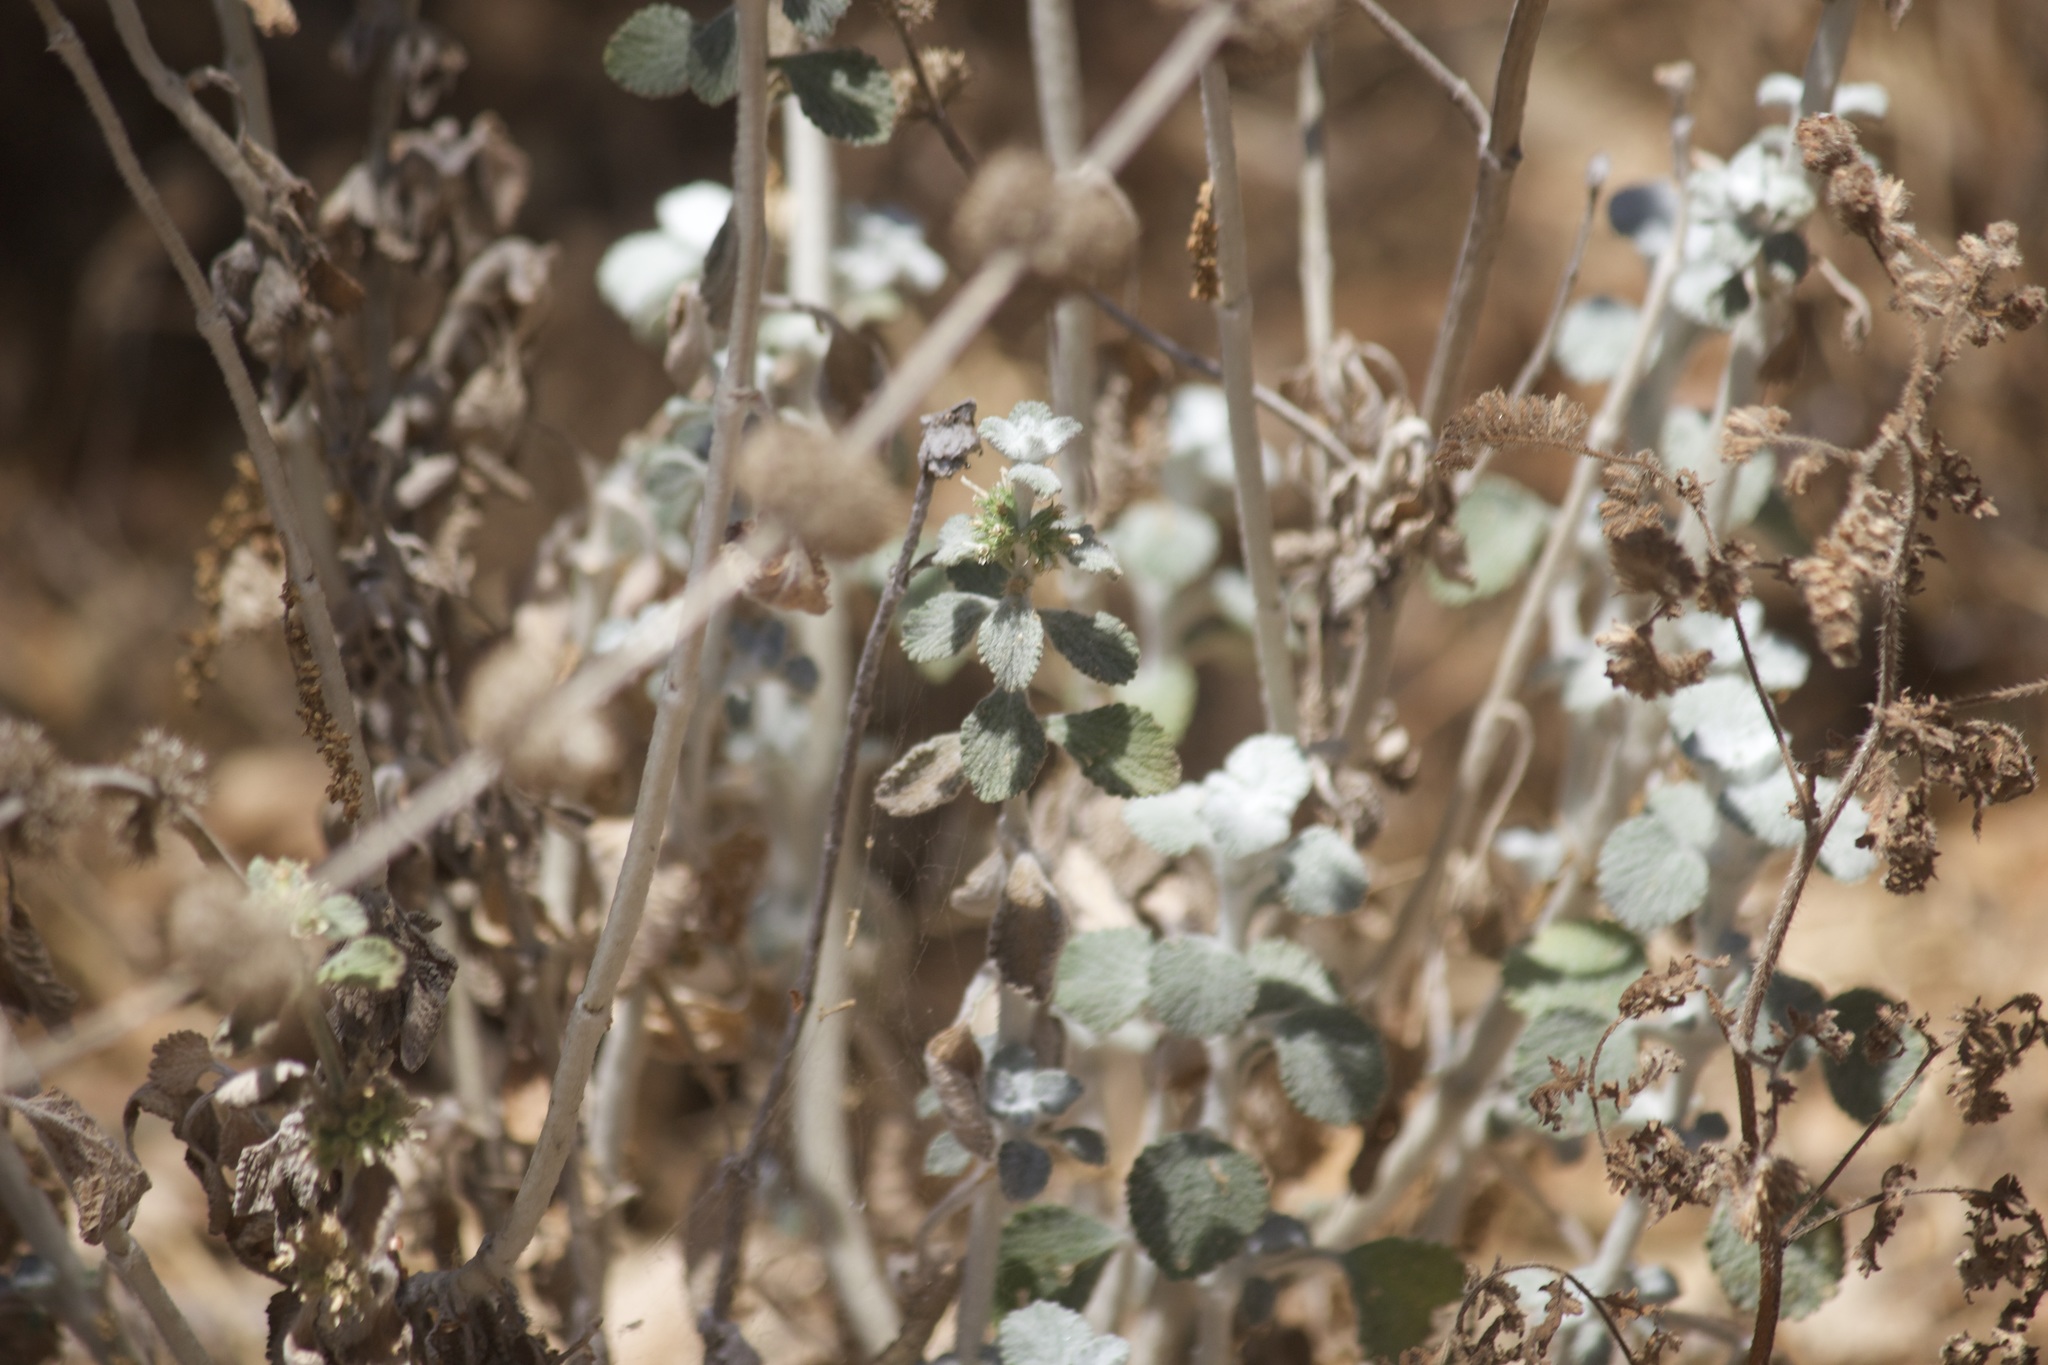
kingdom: Plantae
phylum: Tracheophyta
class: Magnoliopsida
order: Lamiales
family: Lamiaceae
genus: Marrubium
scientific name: Marrubium vulgare
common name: Horehound
